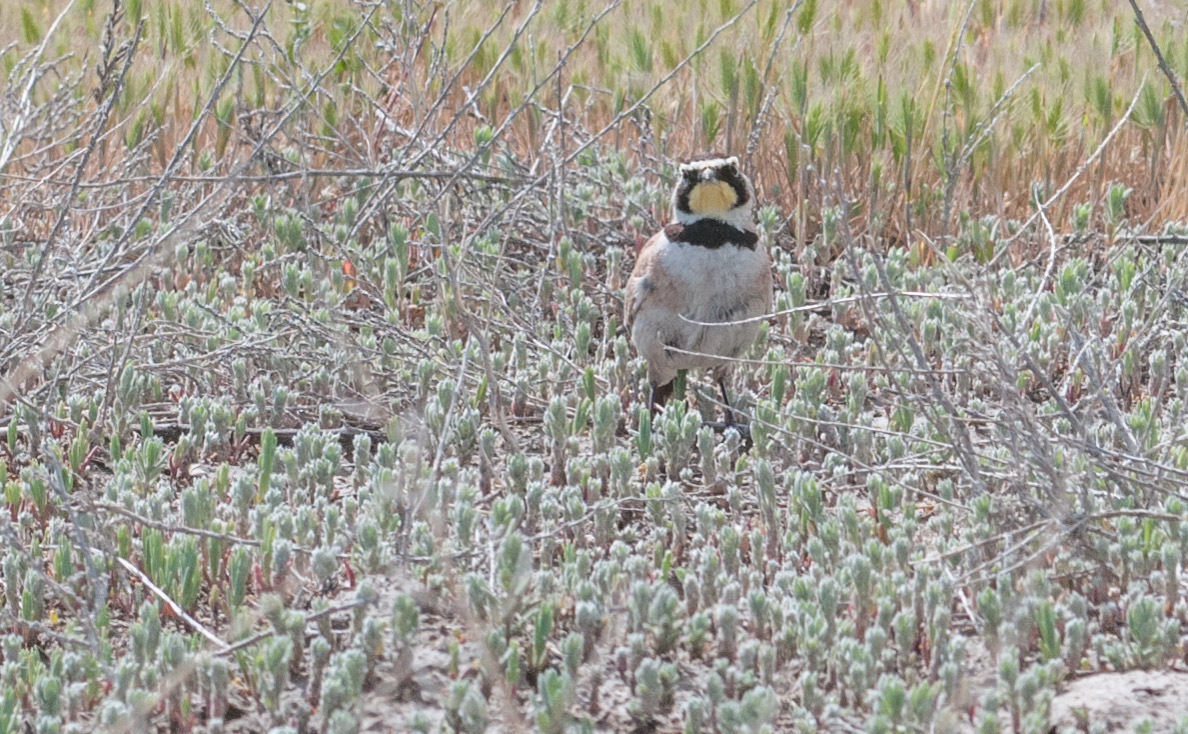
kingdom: Animalia
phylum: Chordata
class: Aves
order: Passeriformes
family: Alaudidae
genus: Eremophila
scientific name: Eremophila alpestris
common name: Horned lark
